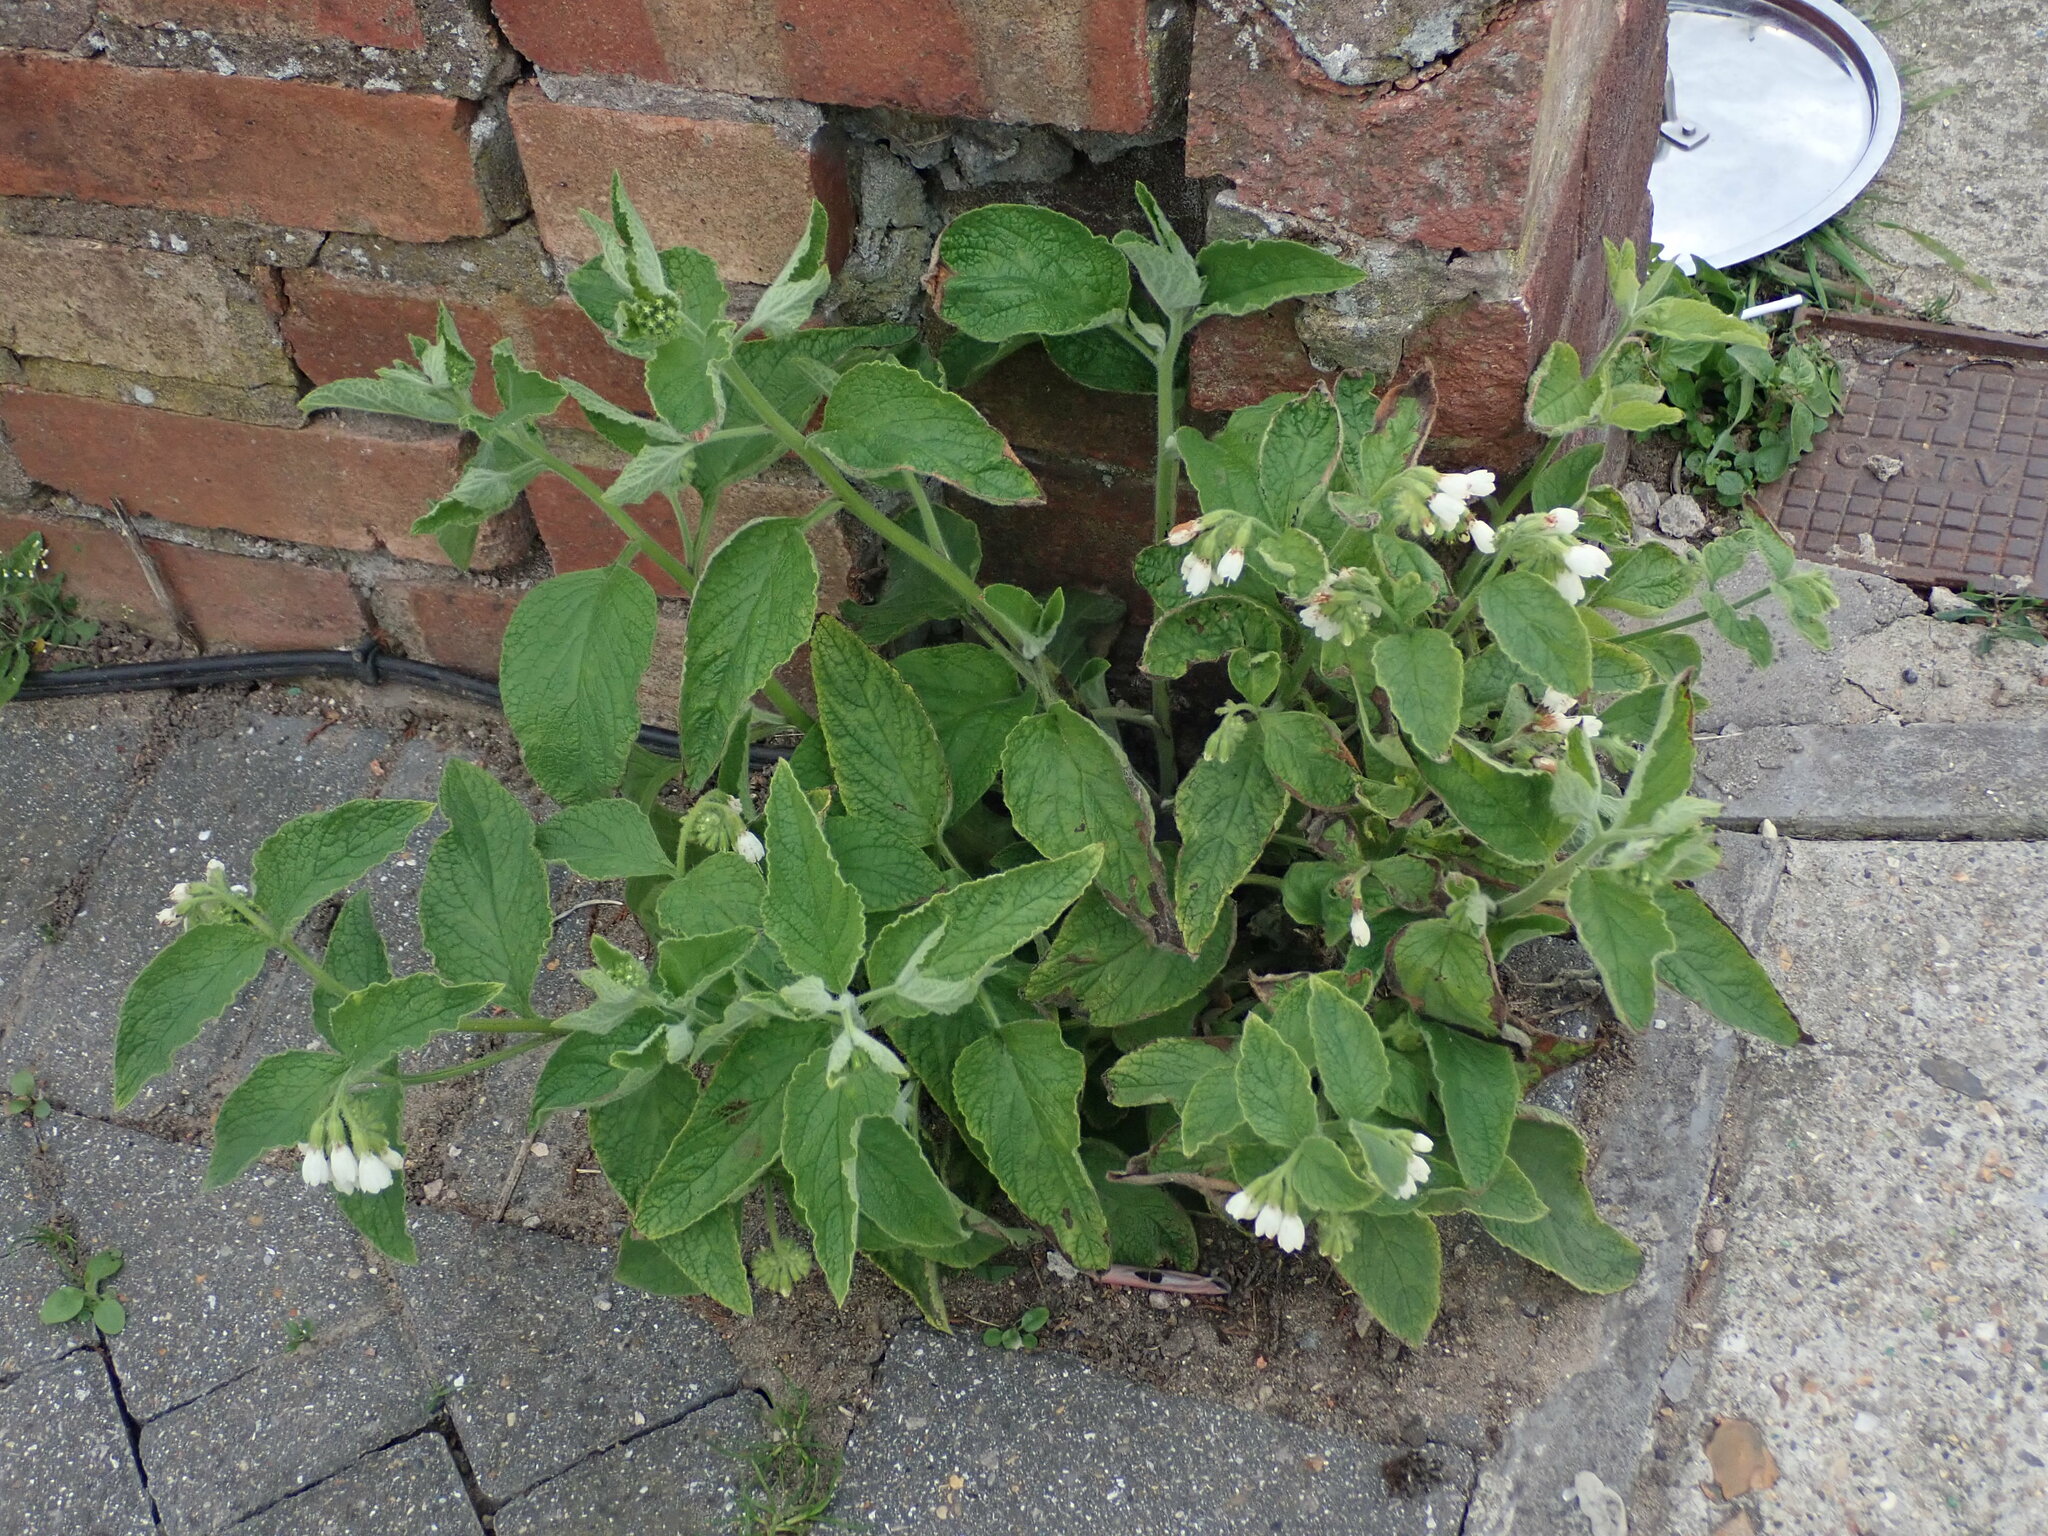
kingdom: Plantae
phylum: Tracheophyta
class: Magnoliopsida
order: Boraginales
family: Boraginaceae
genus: Symphytum
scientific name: Symphytum orientale
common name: White comfrey
